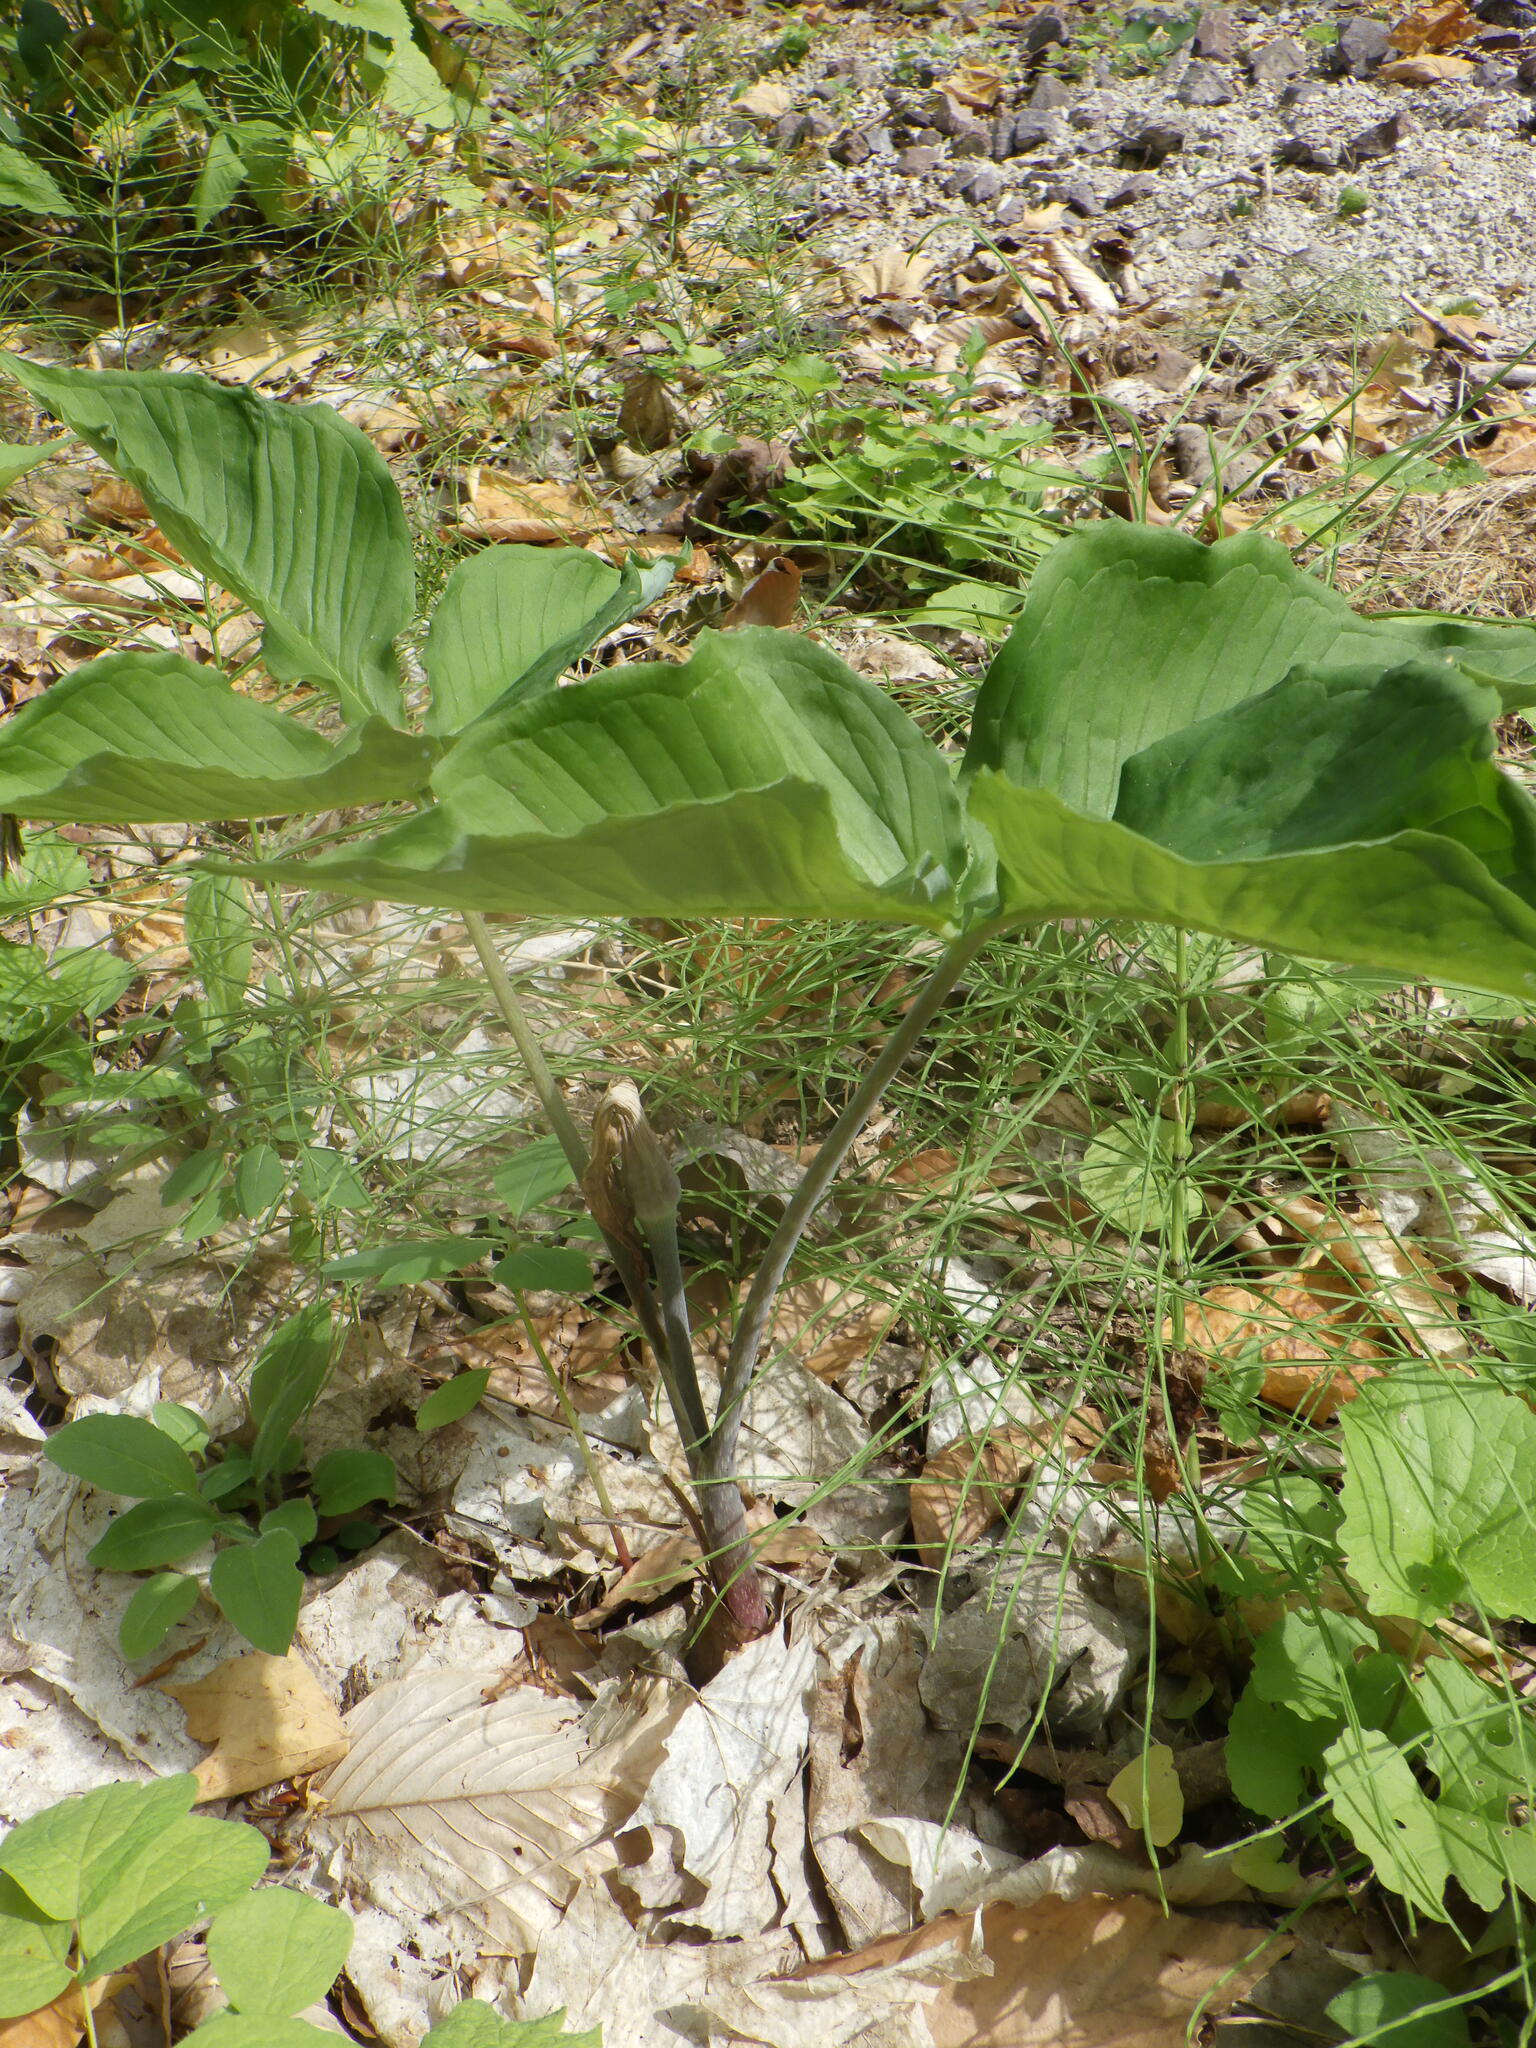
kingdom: Plantae
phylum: Tracheophyta
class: Liliopsida
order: Alismatales
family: Araceae
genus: Arisaema
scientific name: Arisaema triphyllum
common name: Jack-in-the-pulpit
